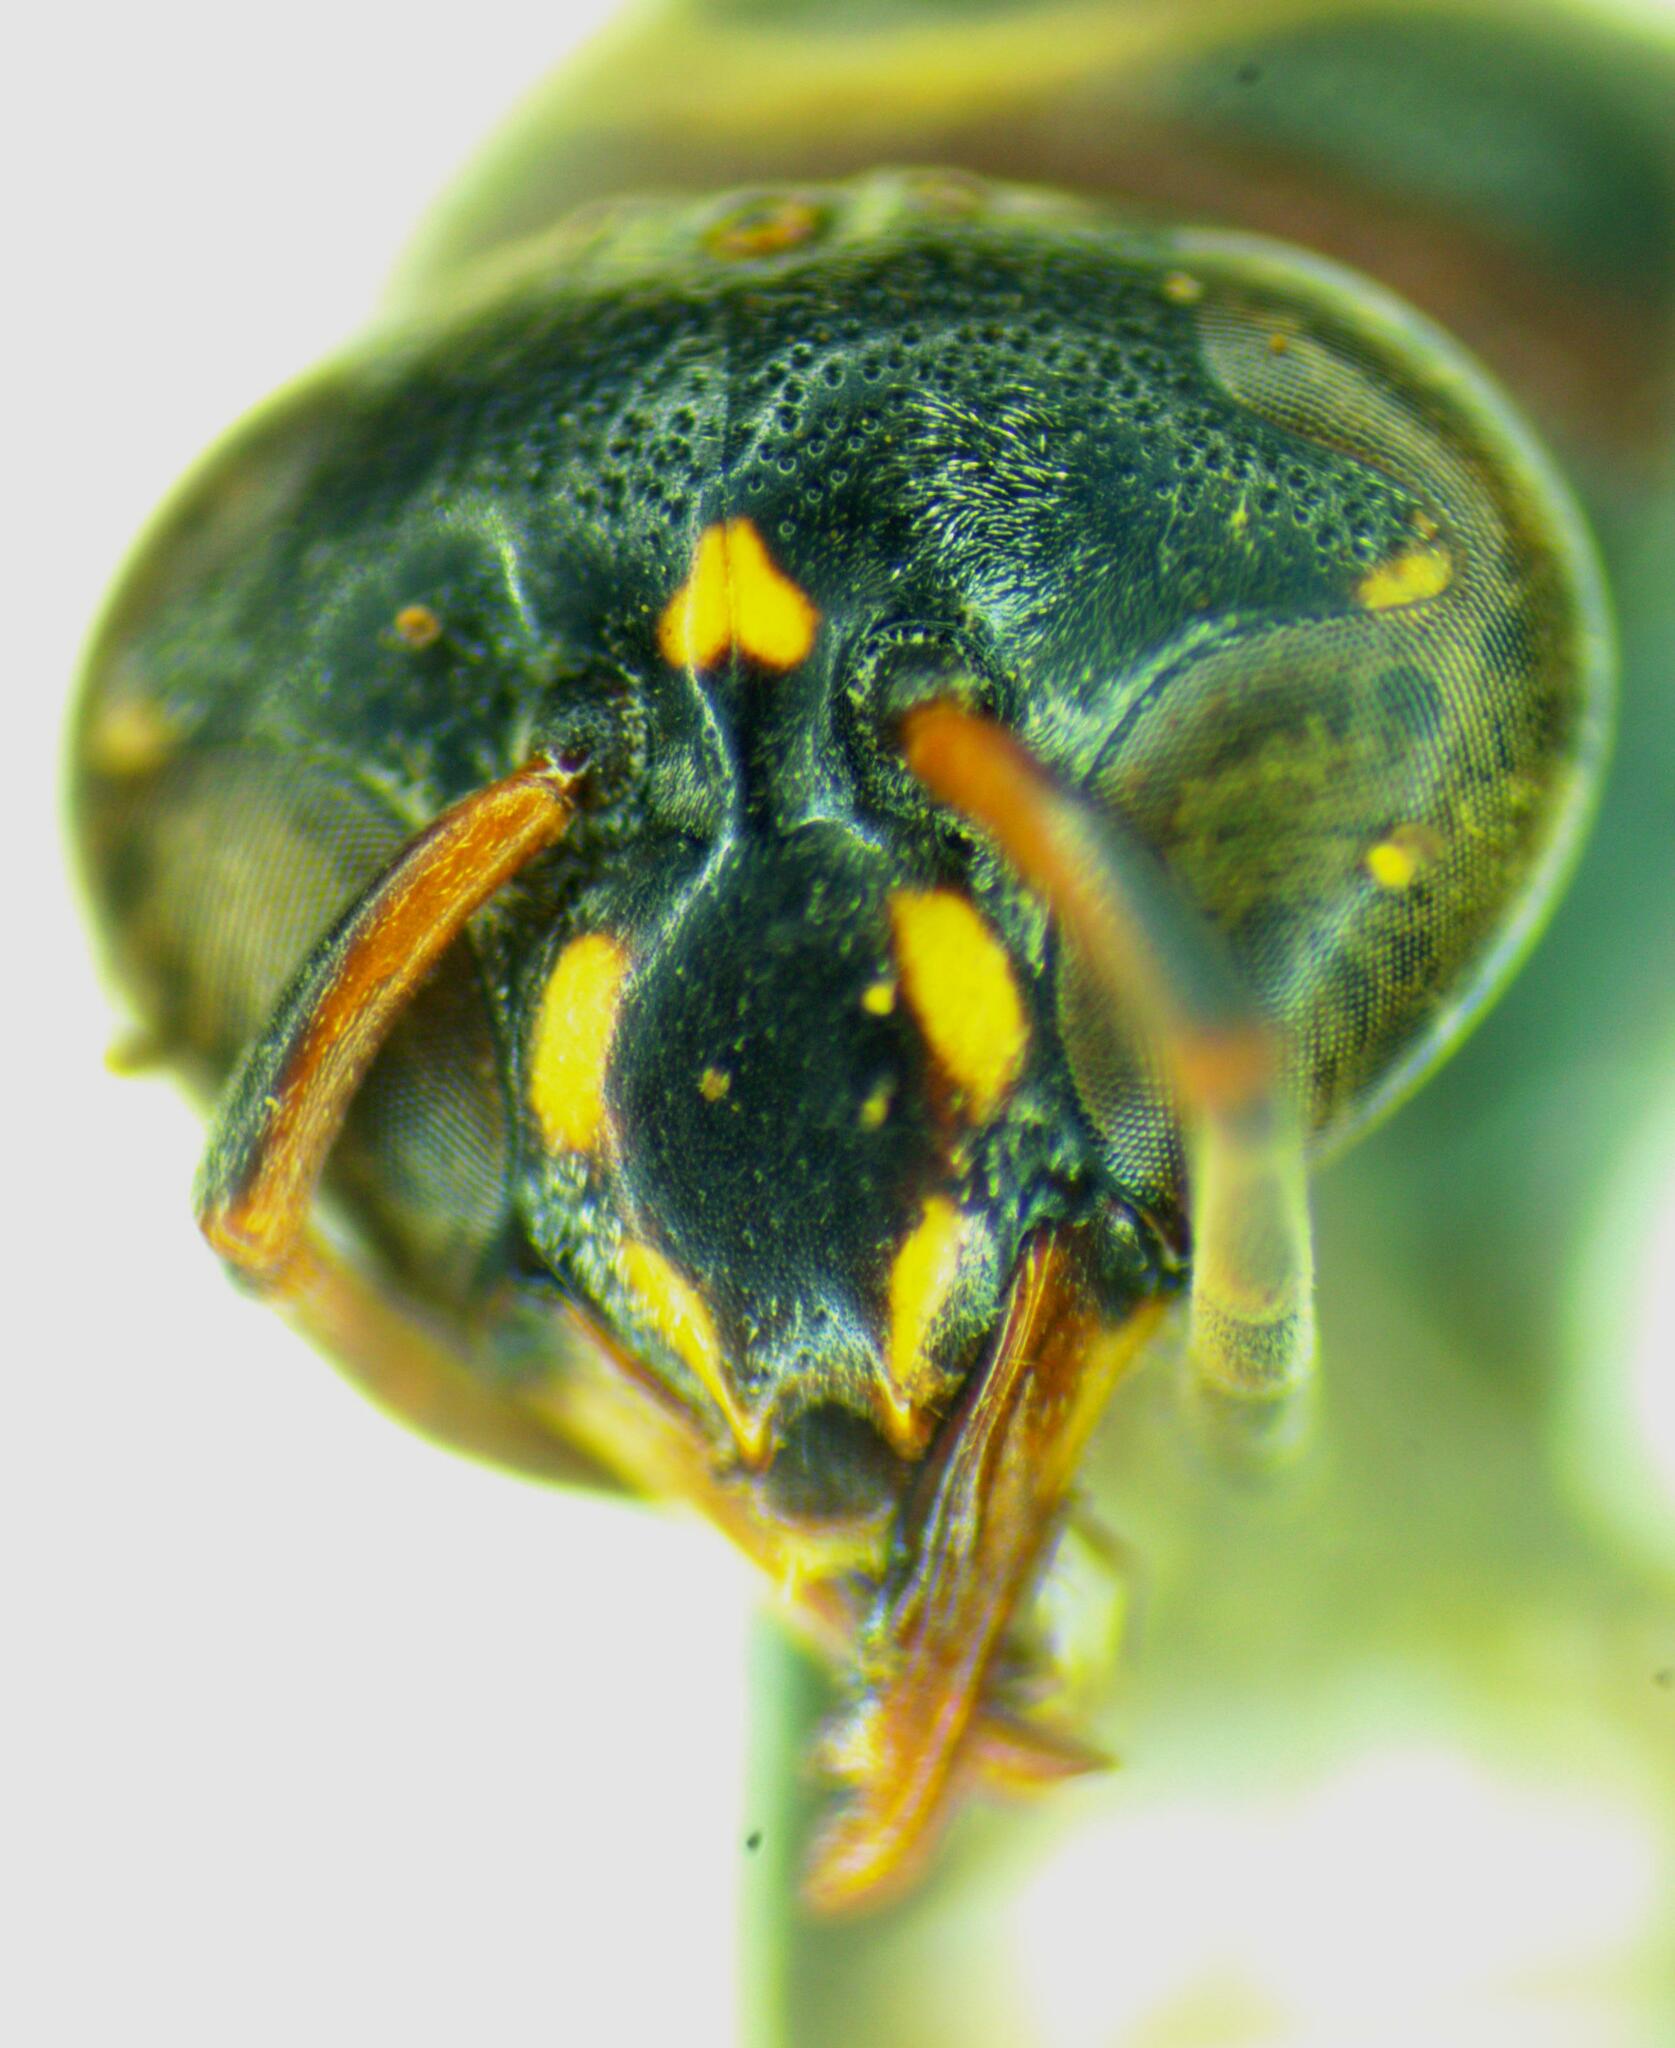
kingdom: Animalia
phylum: Arthropoda
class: Insecta
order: Hymenoptera
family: Eumenidae
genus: Minixi
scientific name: Minixi mexicanum
